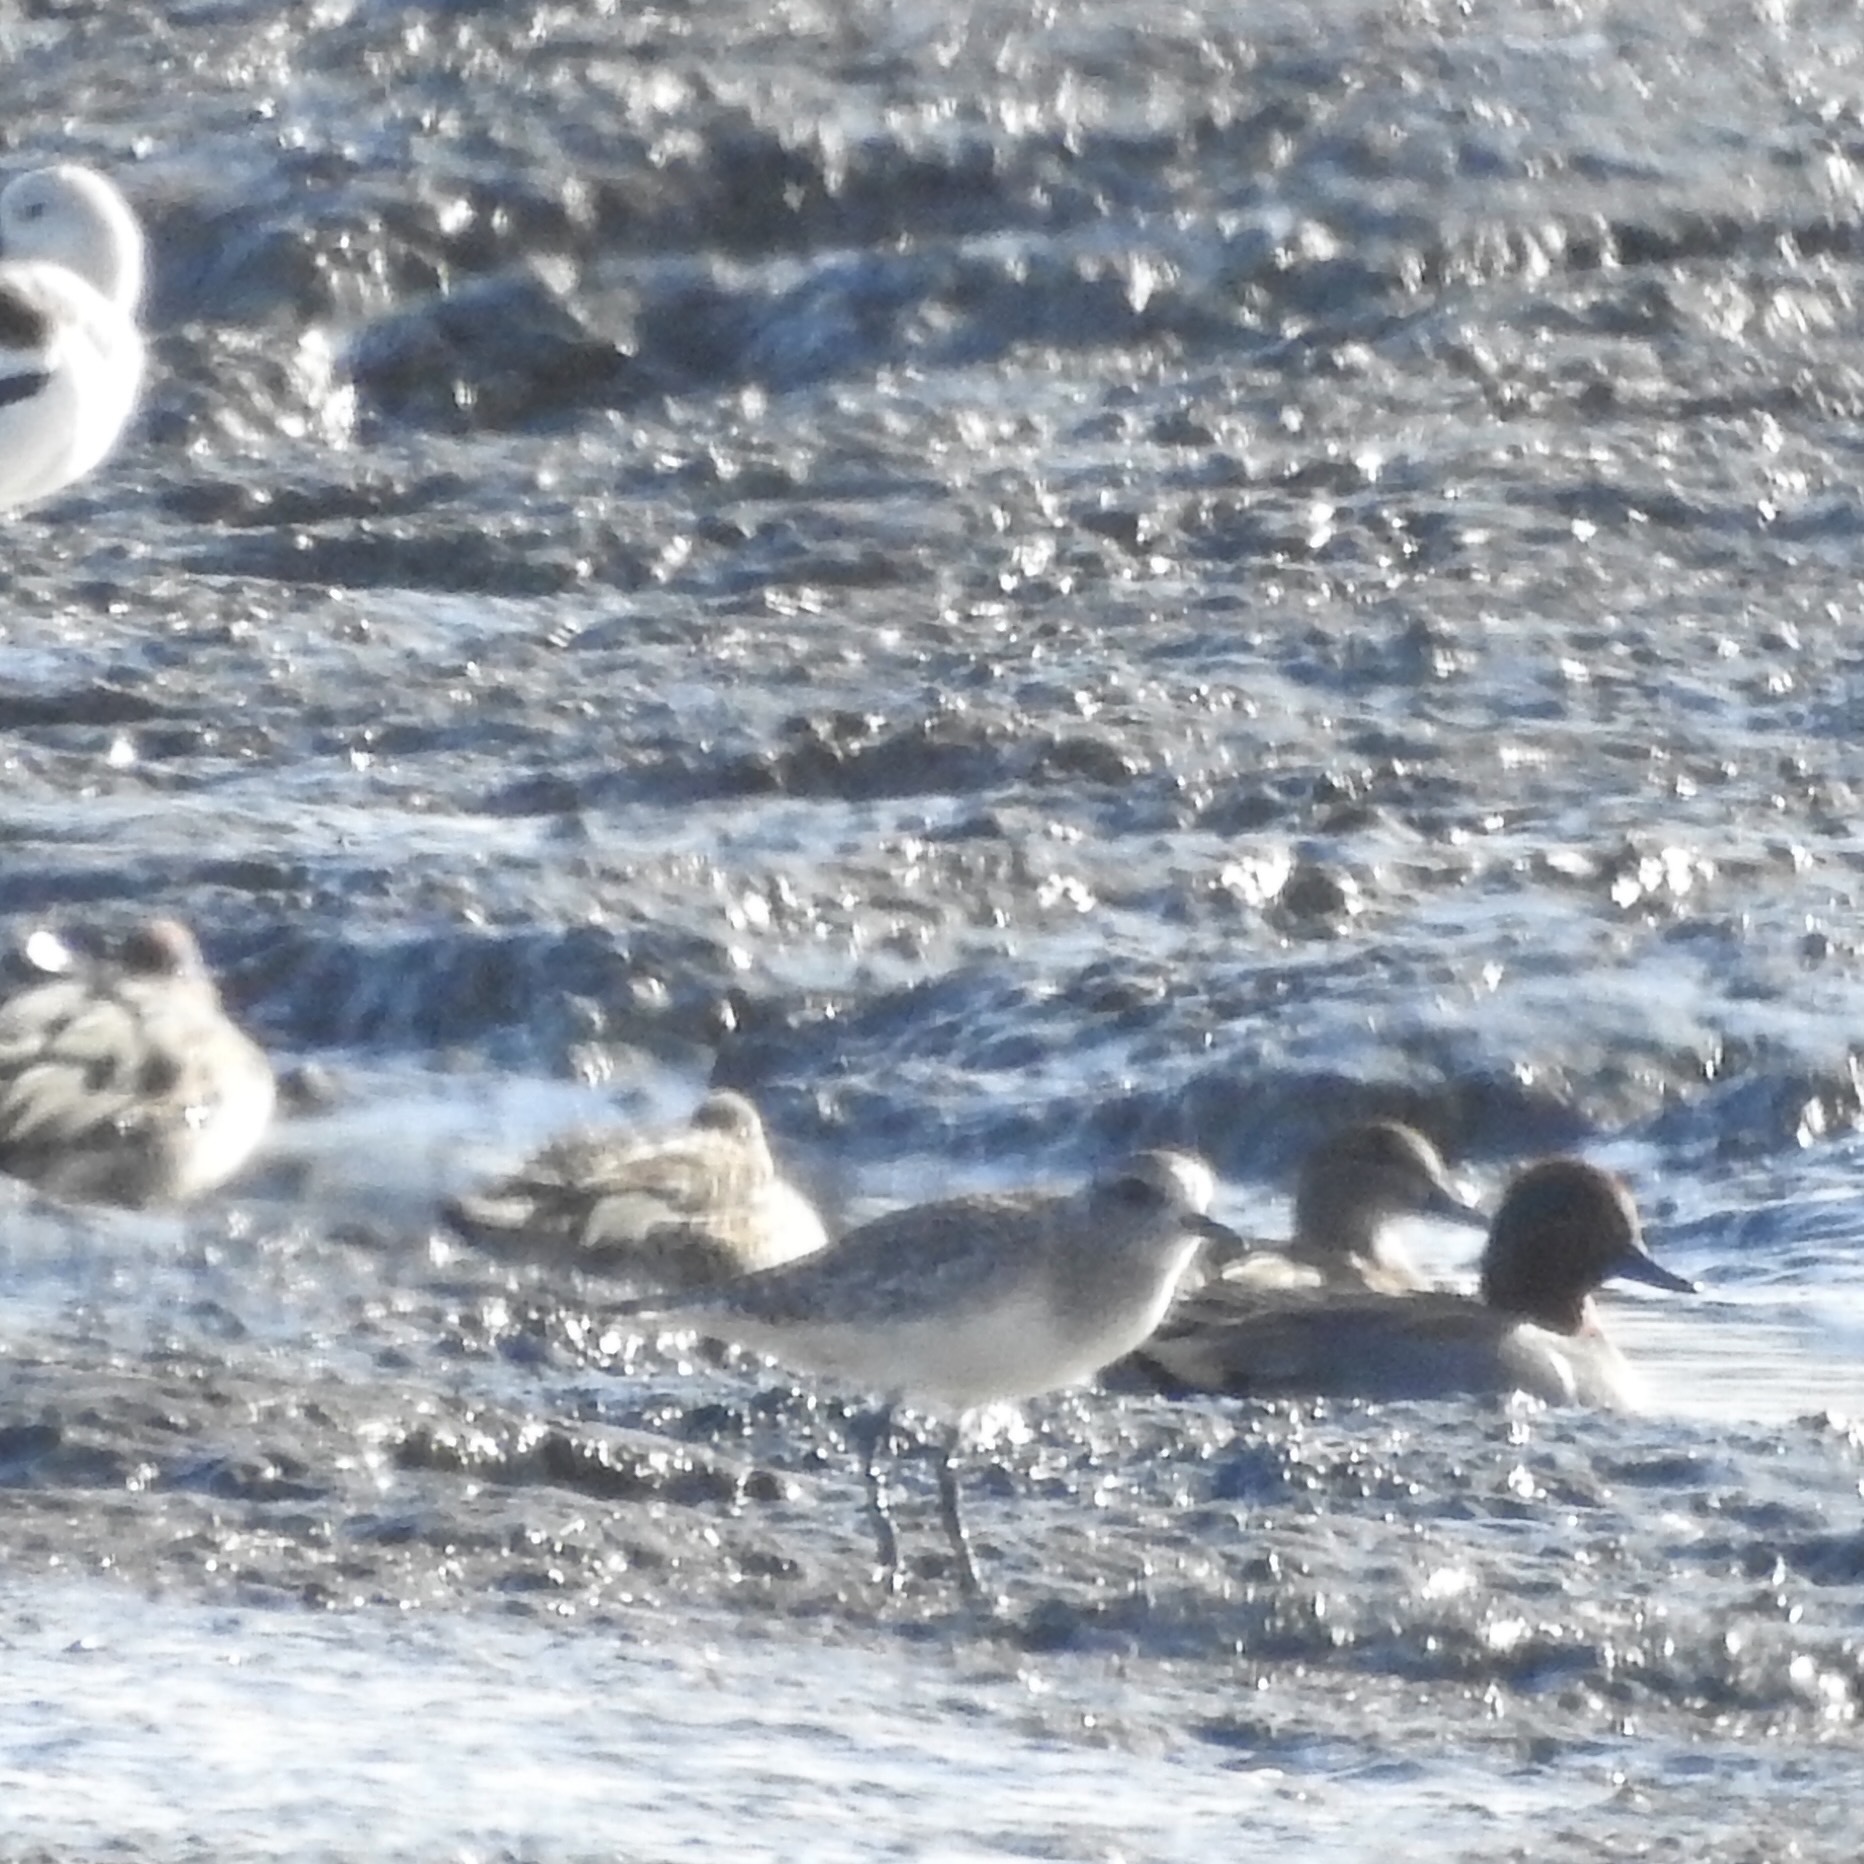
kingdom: Animalia
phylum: Chordata
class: Aves
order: Charadriiformes
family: Charadriidae
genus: Pluvialis
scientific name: Pluvialis squatarola
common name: Grey plover
